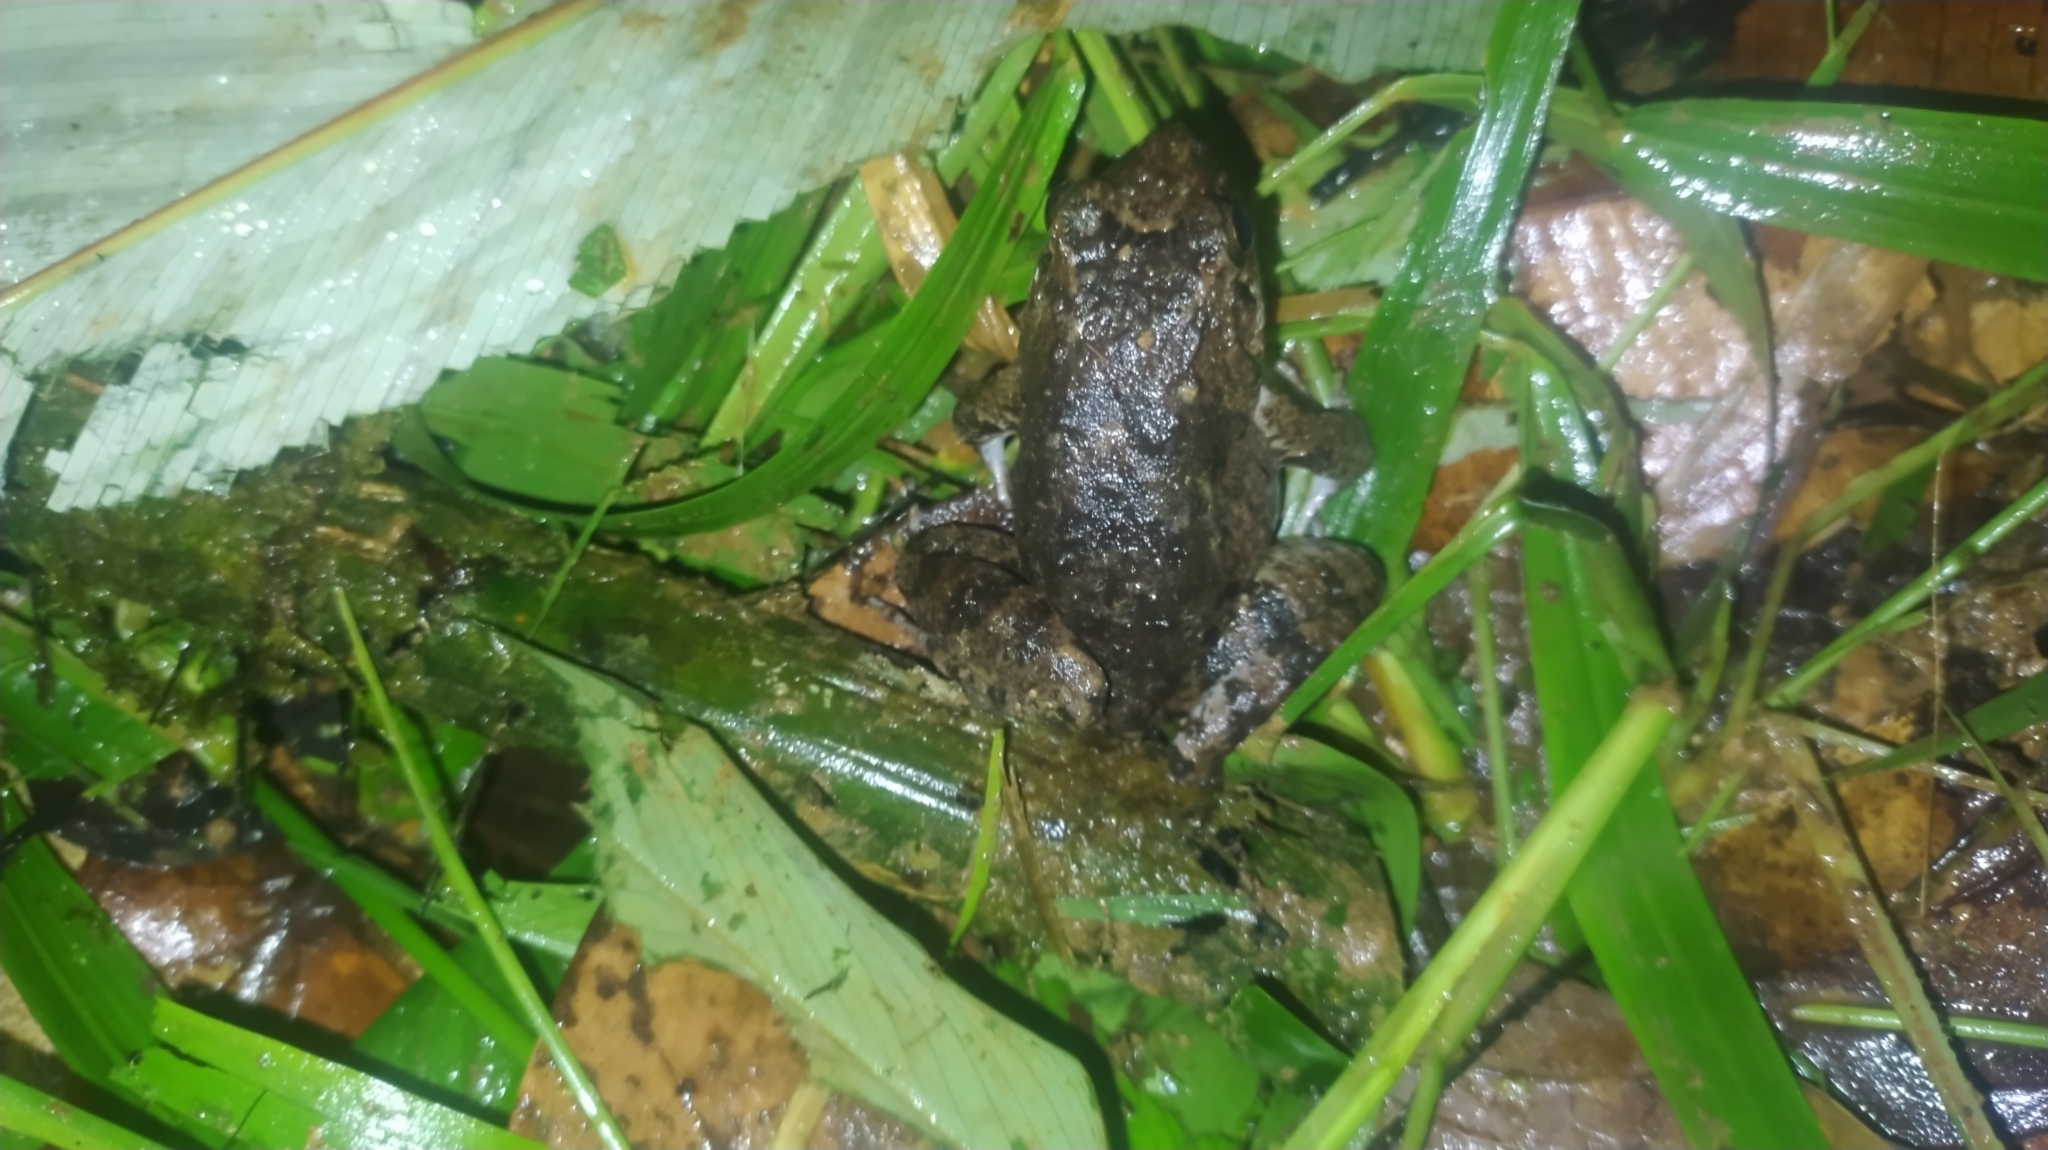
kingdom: Animalia
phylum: Chordata
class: Amphibia
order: Anura
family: Leptodactylidae
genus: Leptodactylus
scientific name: Leptodactylus fremitus
